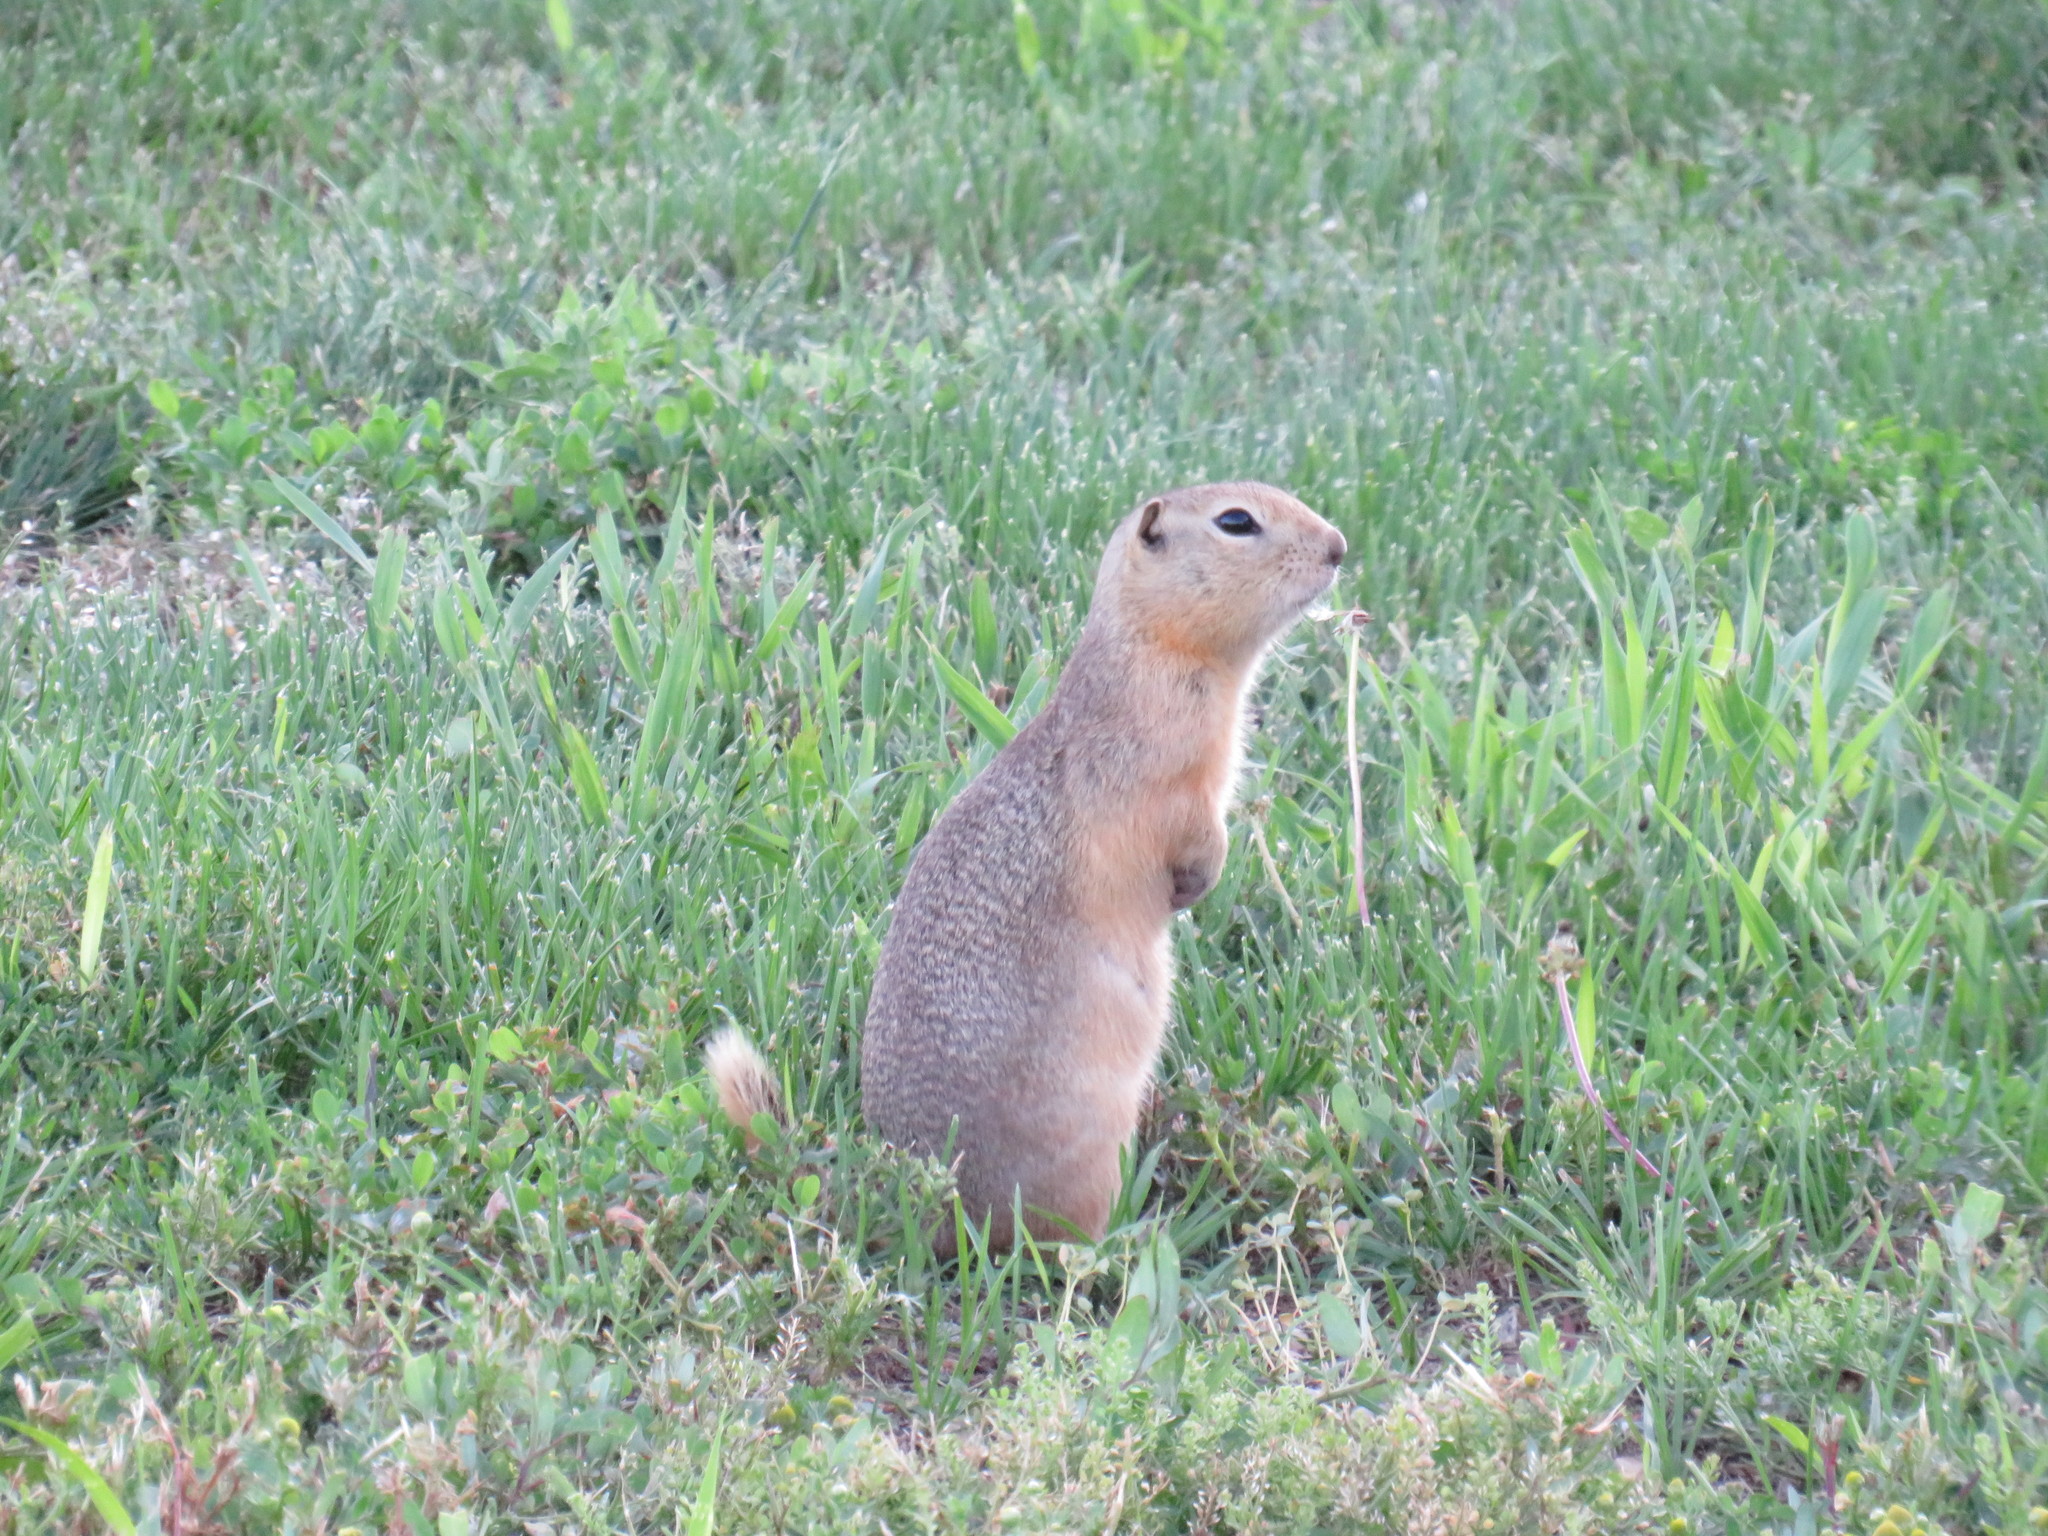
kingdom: Animalia
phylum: Chordata
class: Mammalia
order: Rodentia
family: Sciuridae
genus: Urocitellus
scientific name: Urocitellus richardsonii
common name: Richardson's ground squirrel
